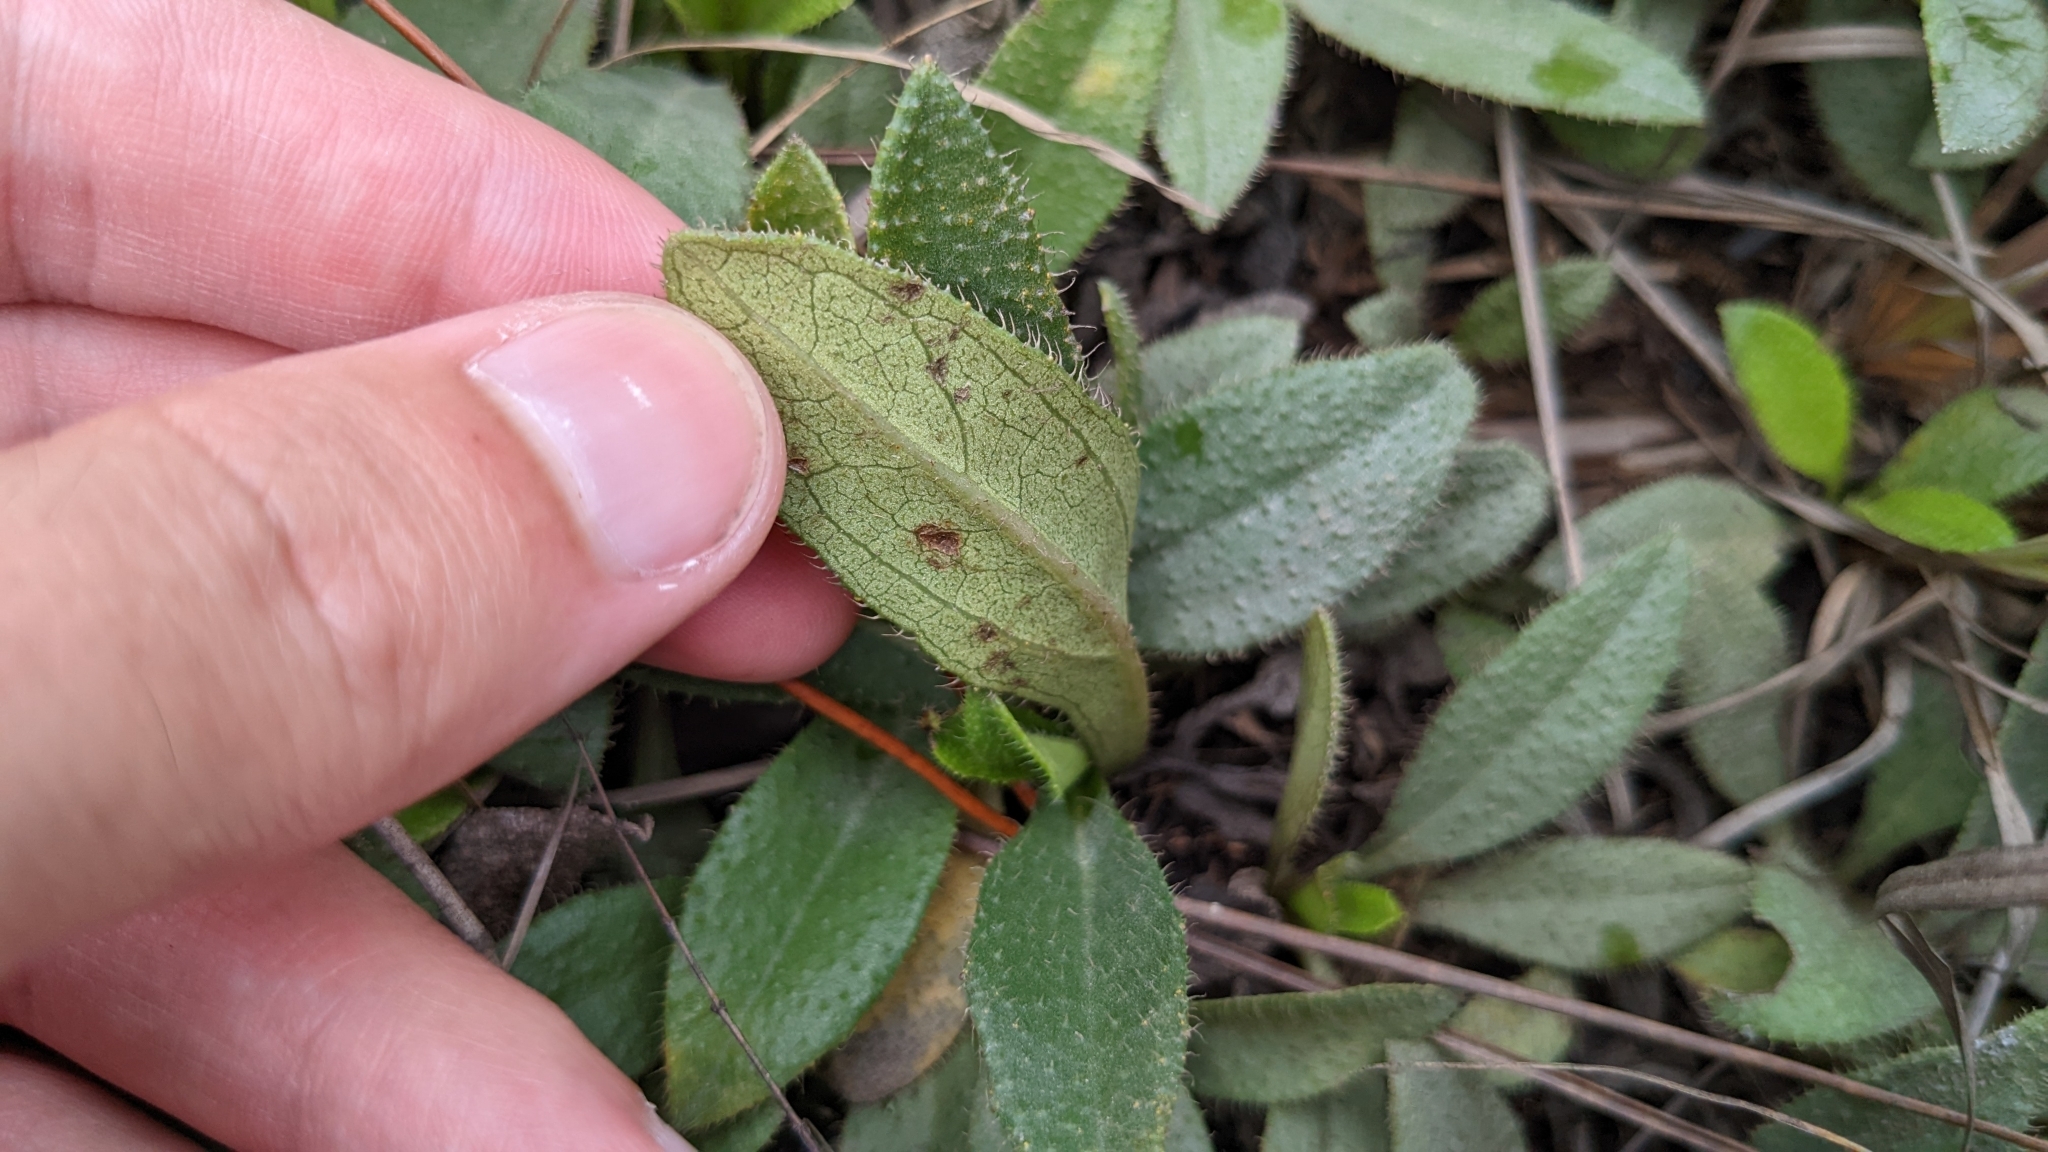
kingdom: Plantae
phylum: Tracheophyta
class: Magnoliopsida
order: Asterales
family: Asteraceae
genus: Helianthus
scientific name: Helianthus heterophyllus
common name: Wetland sunflower
